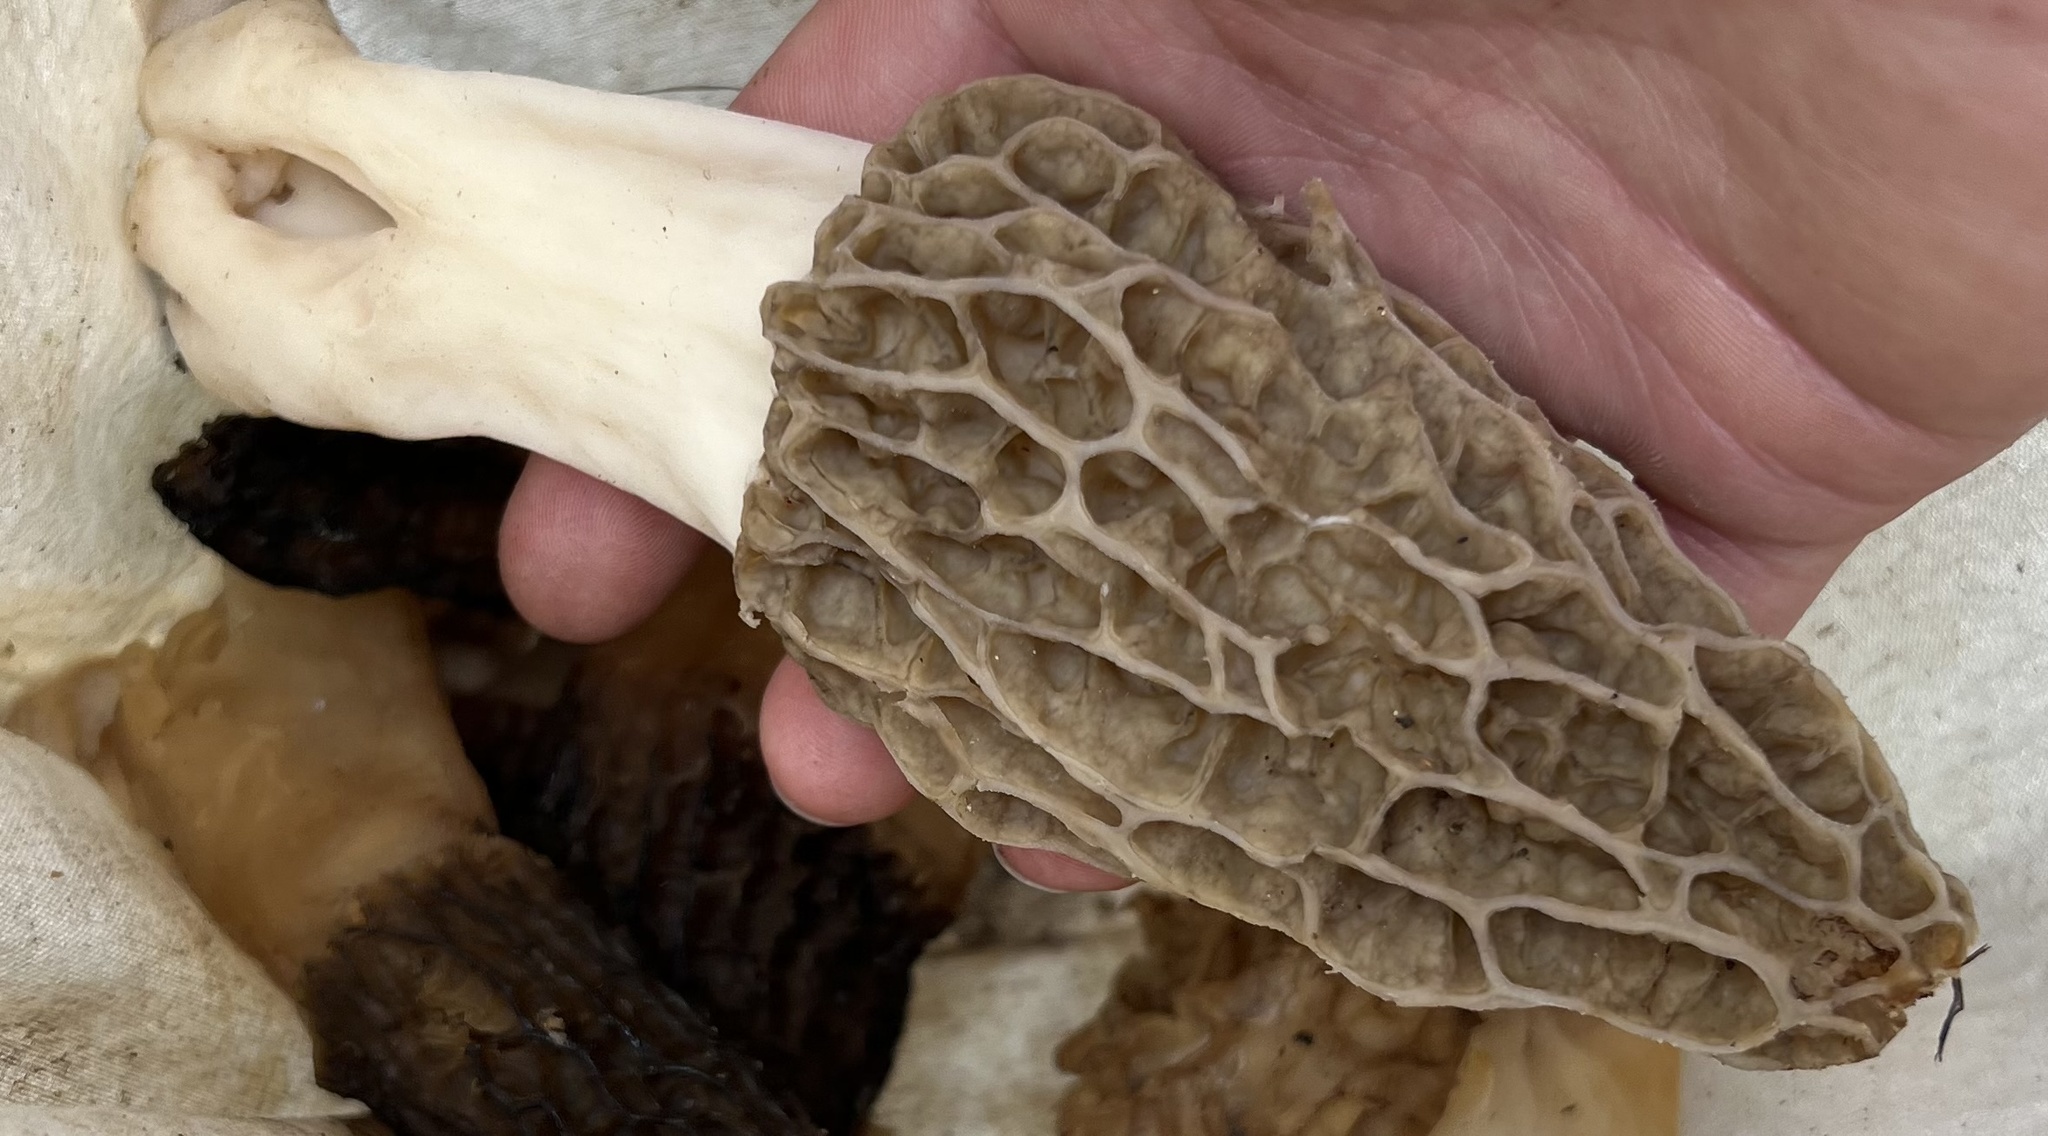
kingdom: Fungi
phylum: Ascomycota
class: Pezizomycetes
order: Pezizales
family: Morchellaceae
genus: Morchella
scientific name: Morchella rufobrunnea
